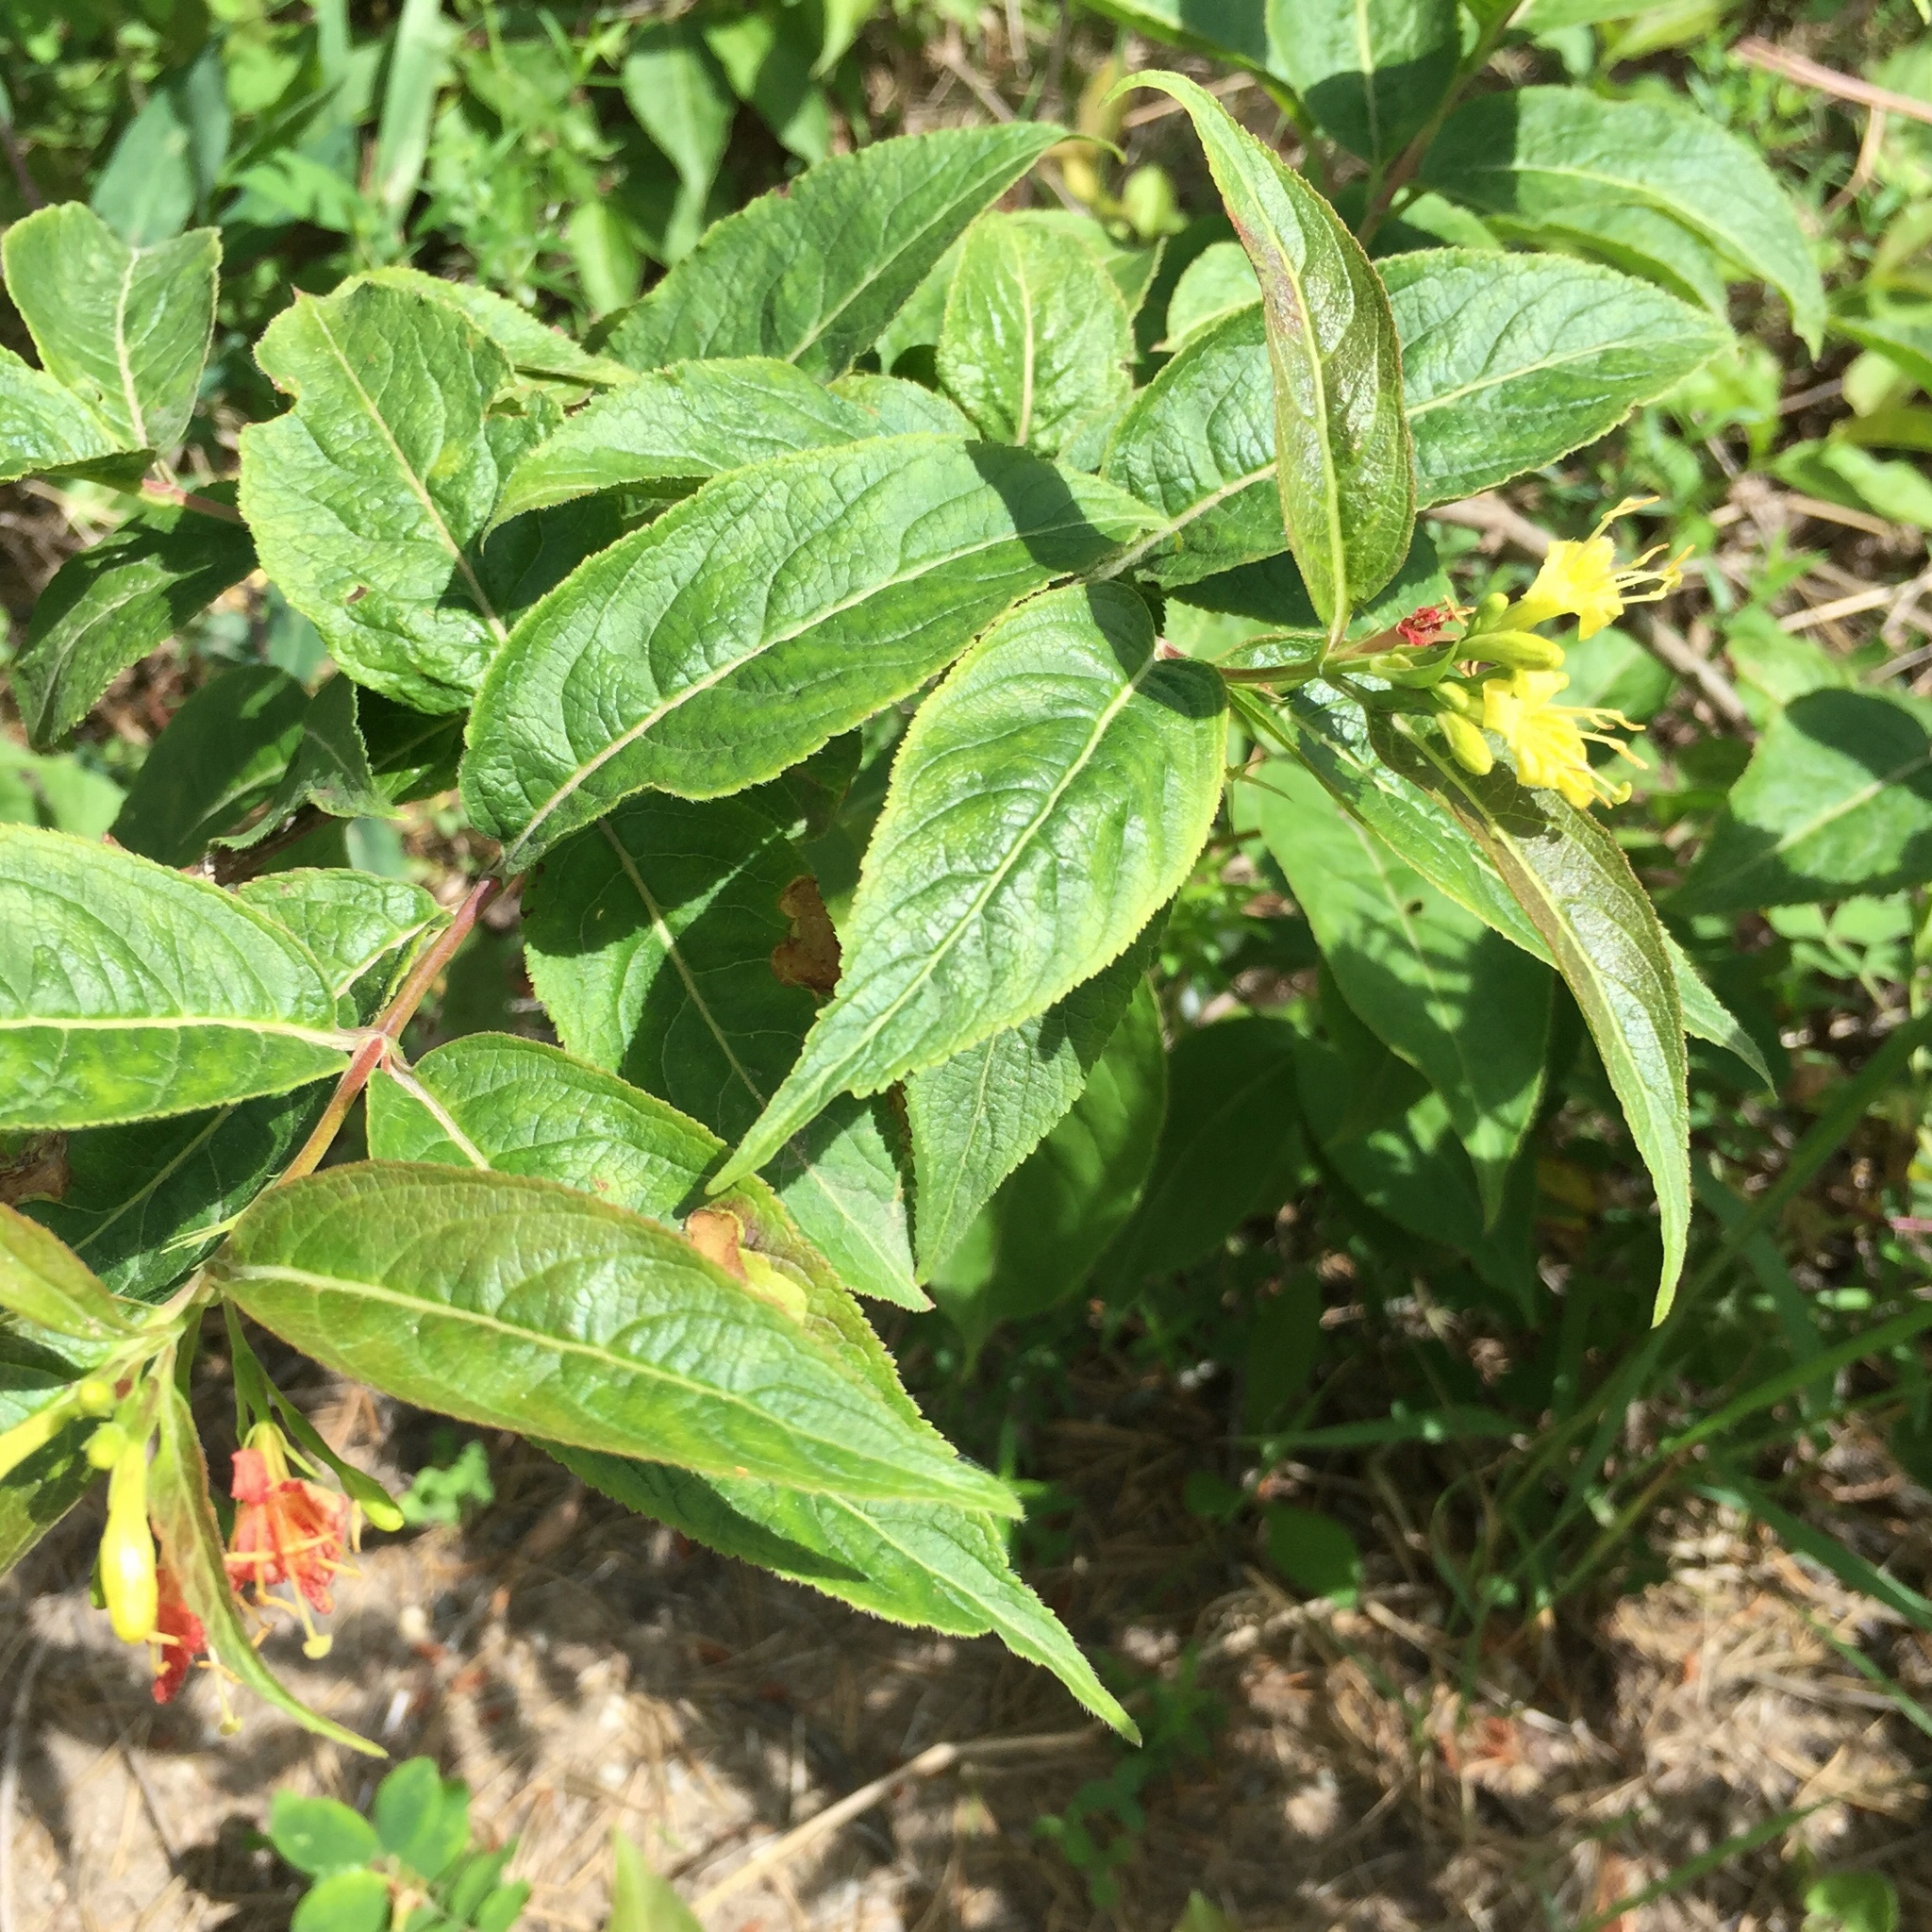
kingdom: Plantae
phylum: Tracheophyta
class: Magnoliopsida
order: Dipsacales
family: Caprifoliaceae
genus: Diervilla
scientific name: Diervilla lonicera
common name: Bush-honeysuckle
